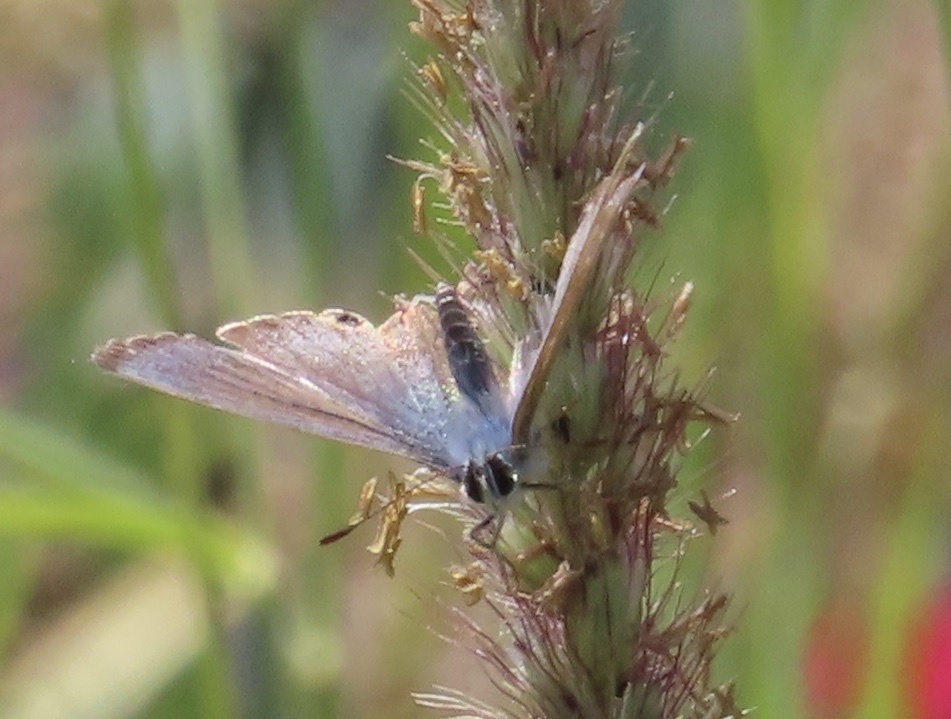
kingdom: Animalia
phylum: Arthropoda
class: Insecta
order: Lepidoptera
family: Lycaenidae
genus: Lampides
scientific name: Lampides boeticus
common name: Long-tailed blue
